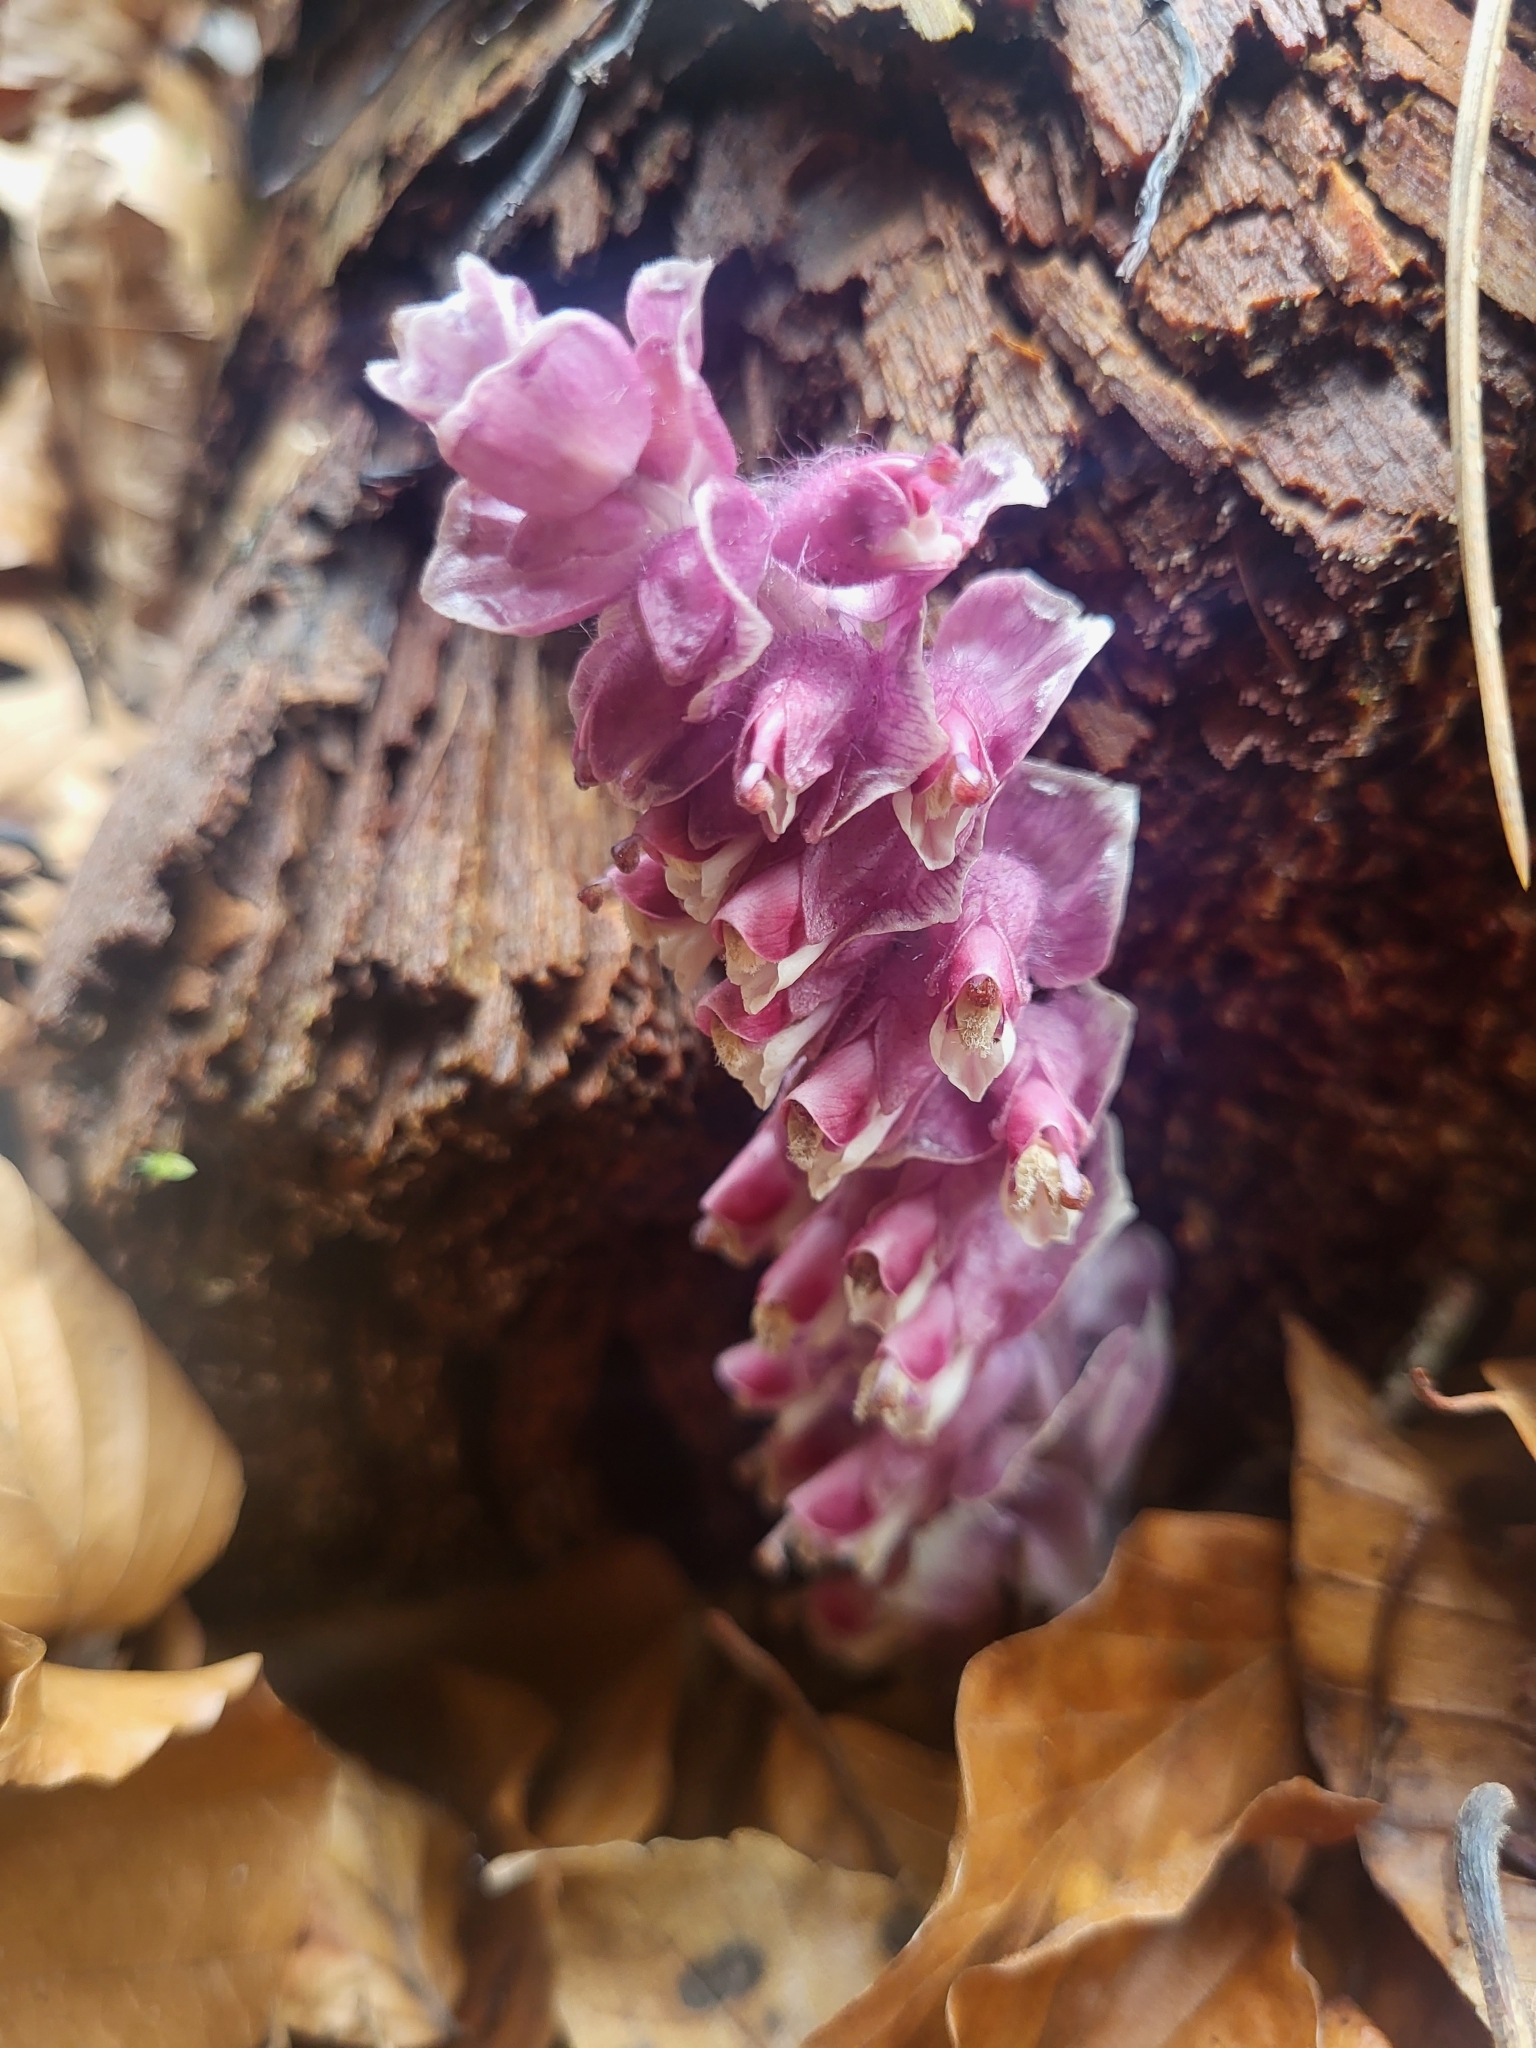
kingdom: Plantae
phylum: Tracheophyta
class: Magnoliopsida
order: Lamiales
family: Orobanchaceae
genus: Lathraea
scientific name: Lathraea squamaria
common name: Toothwort
